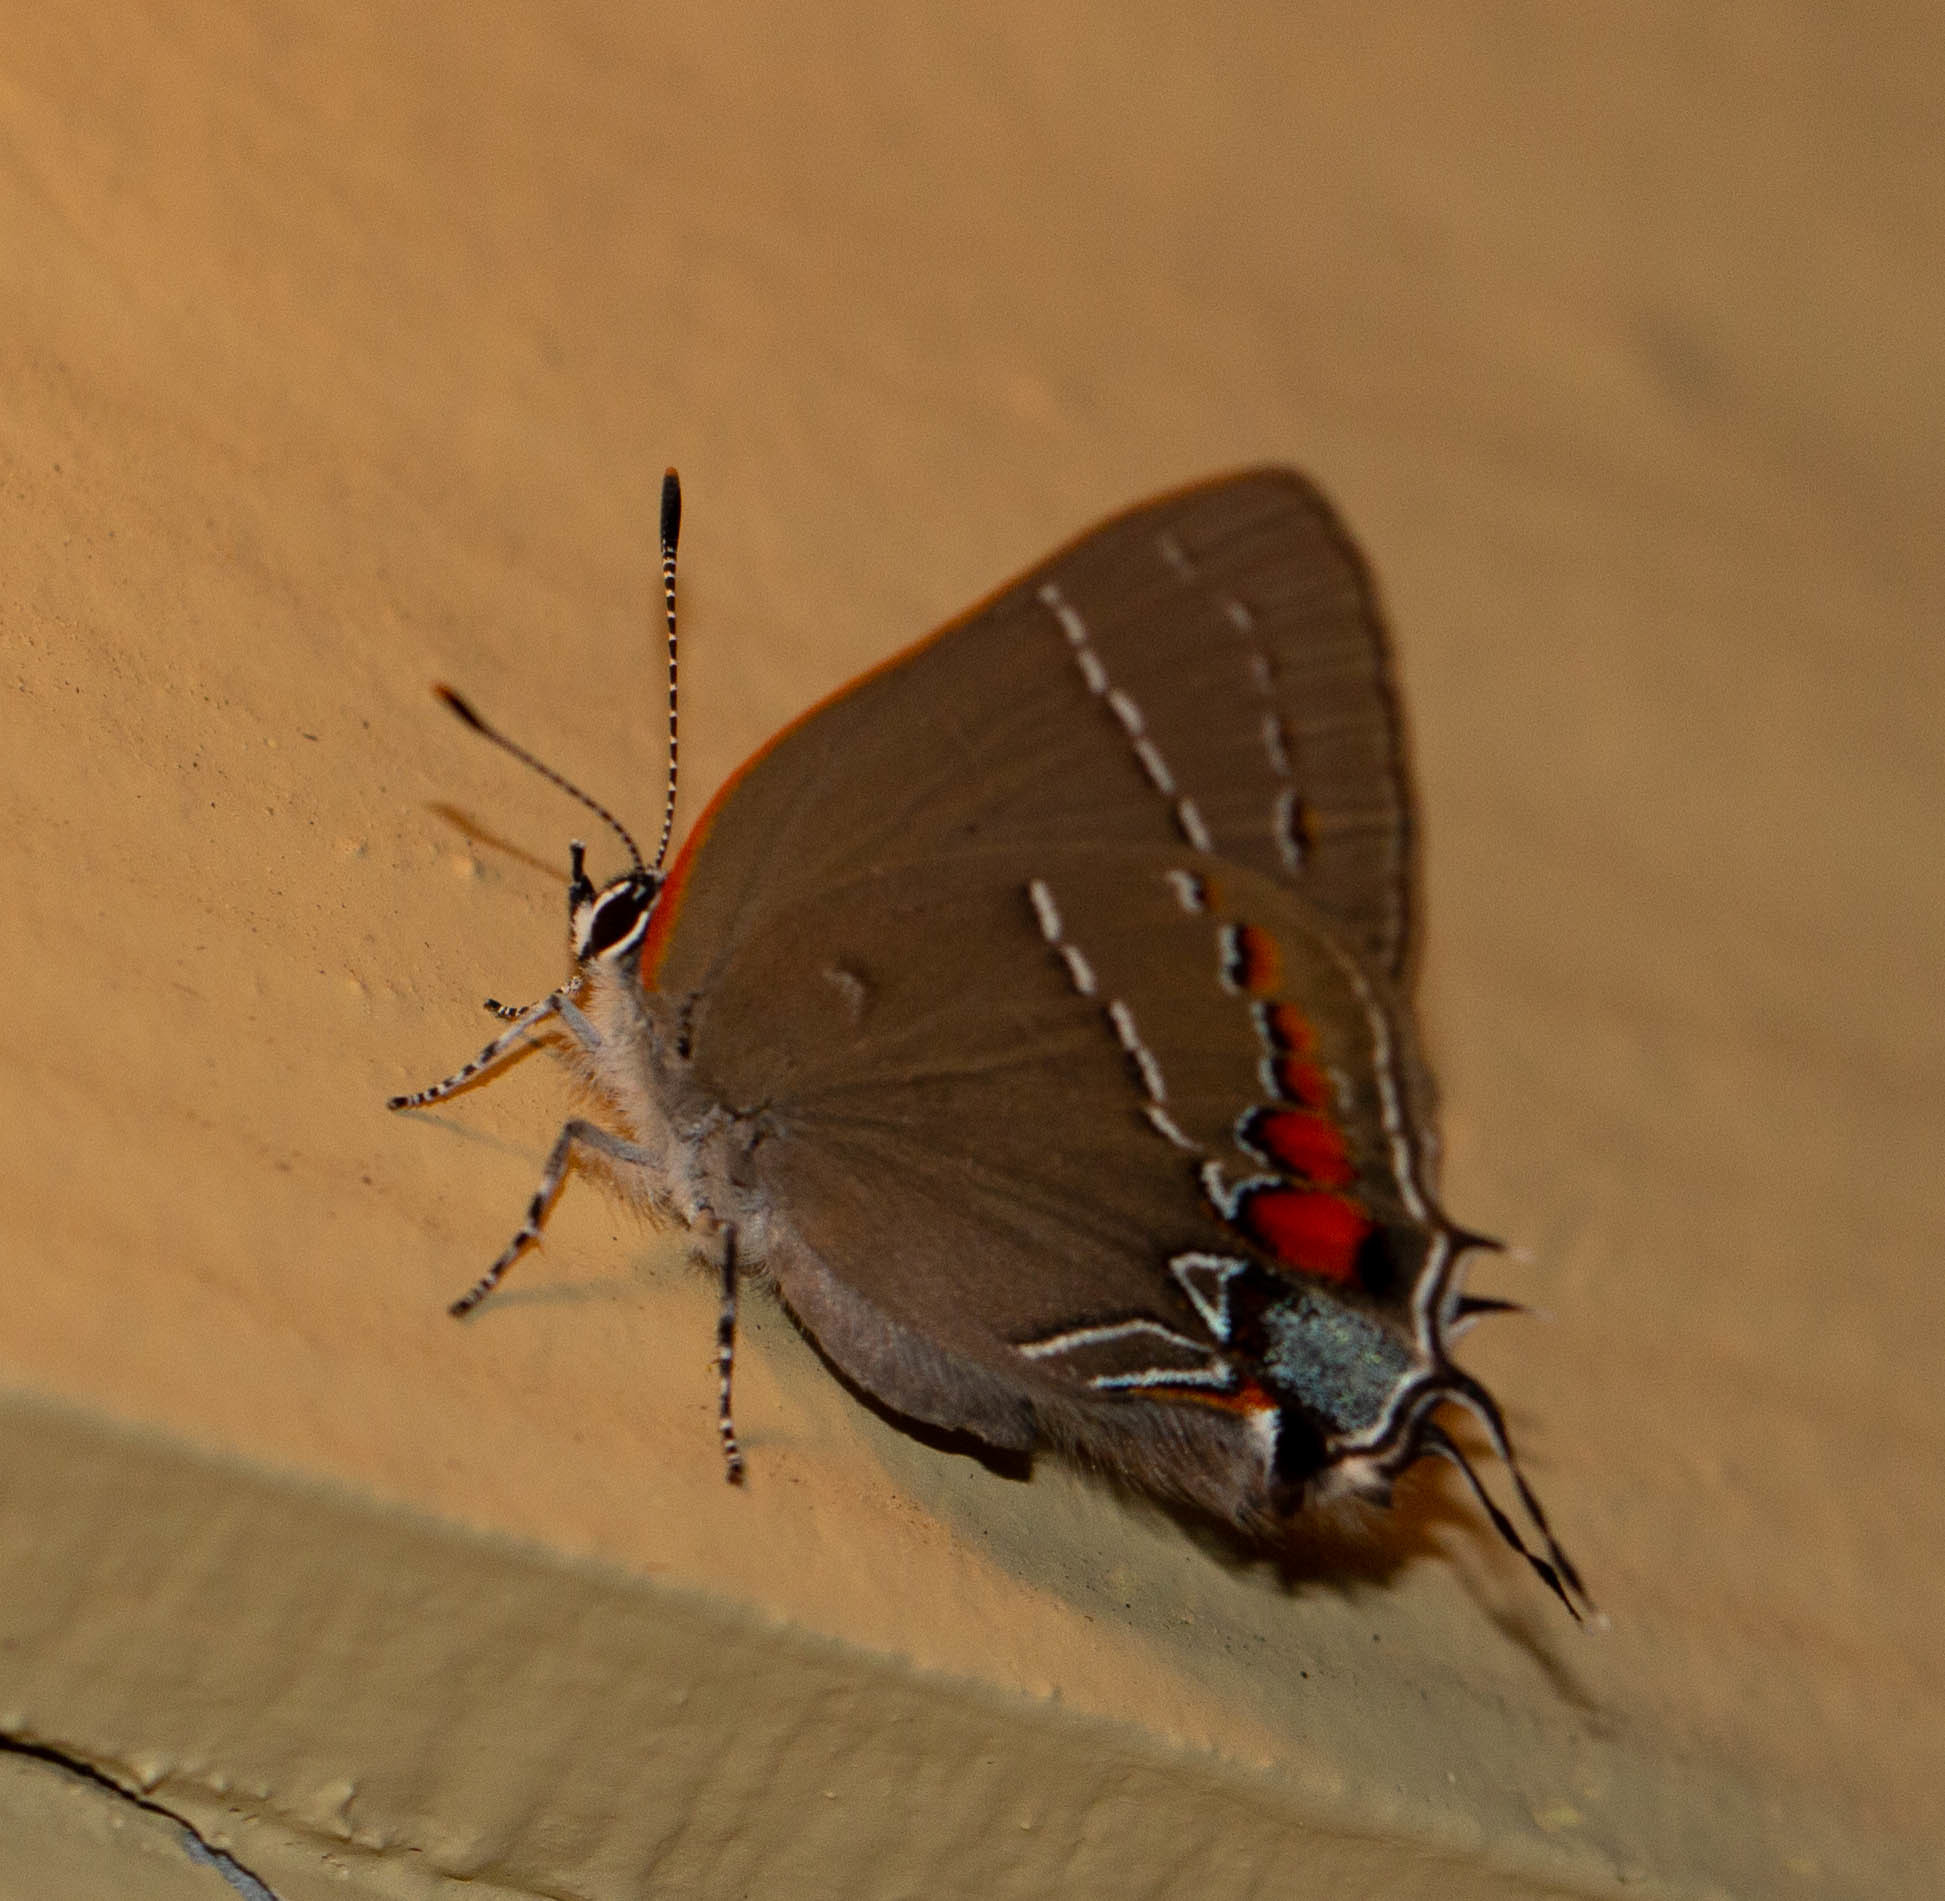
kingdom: Animalia
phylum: Arthropoda
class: Insecta
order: Lepidoptera
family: Lycaenidae
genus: Fixsenia
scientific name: Fixsenia favonius
